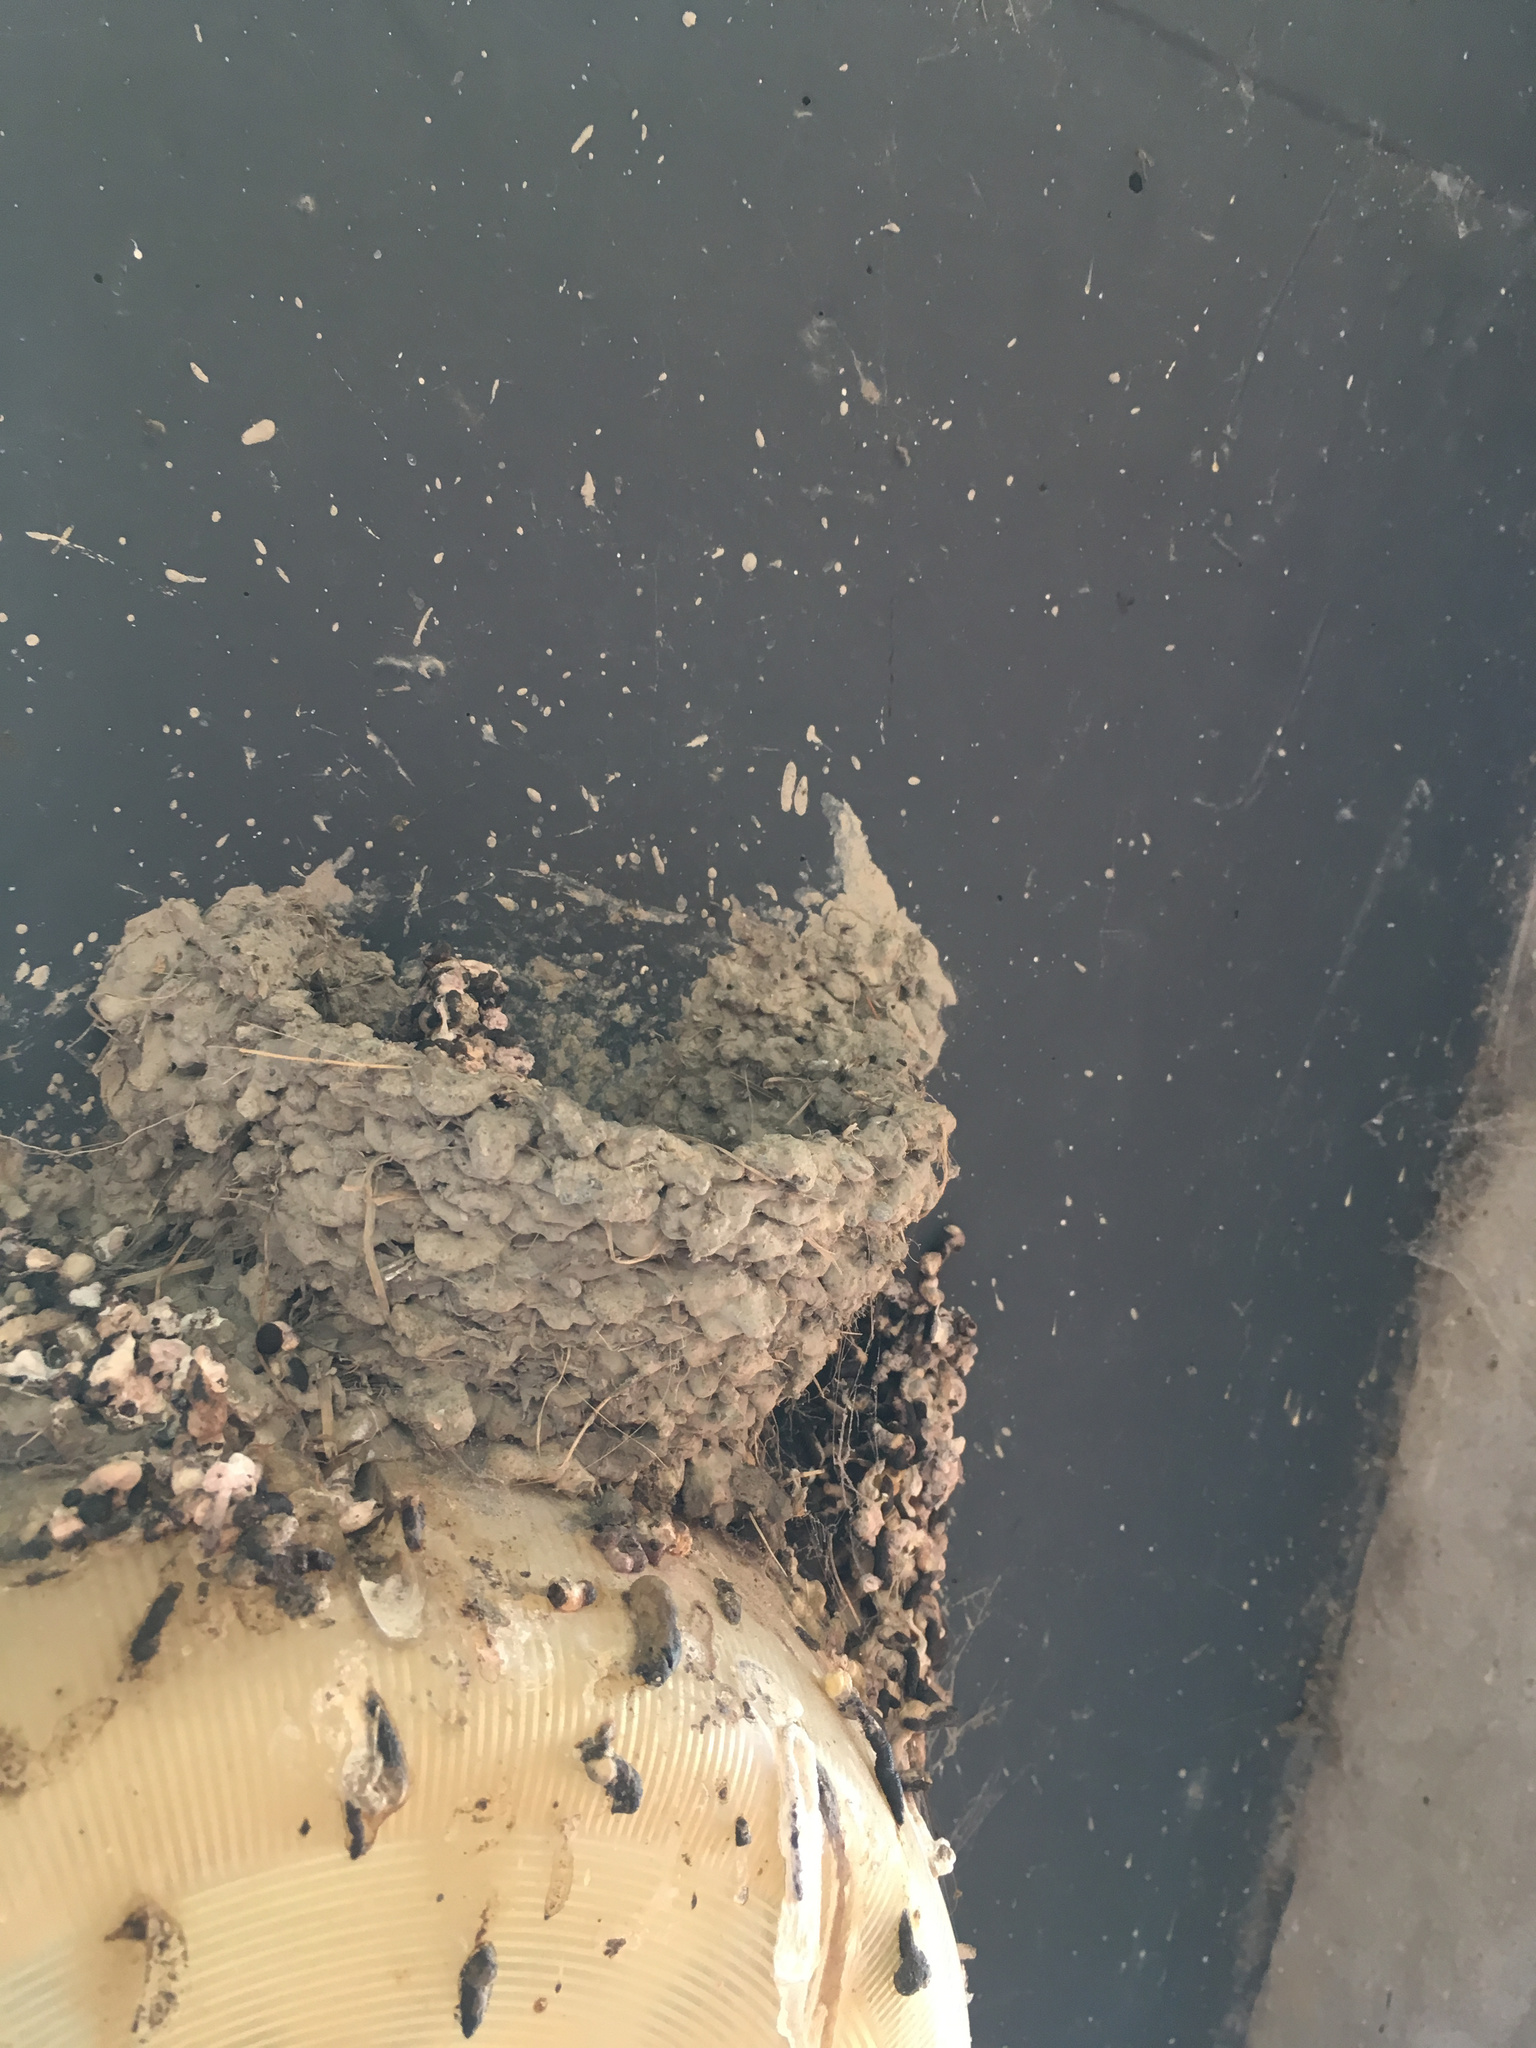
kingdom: Animalia
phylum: Chordata
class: Aves
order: Passeriformes
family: Hirundinidae
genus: Hirundo
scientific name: Hirundo neoxena
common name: Welcome swallow
